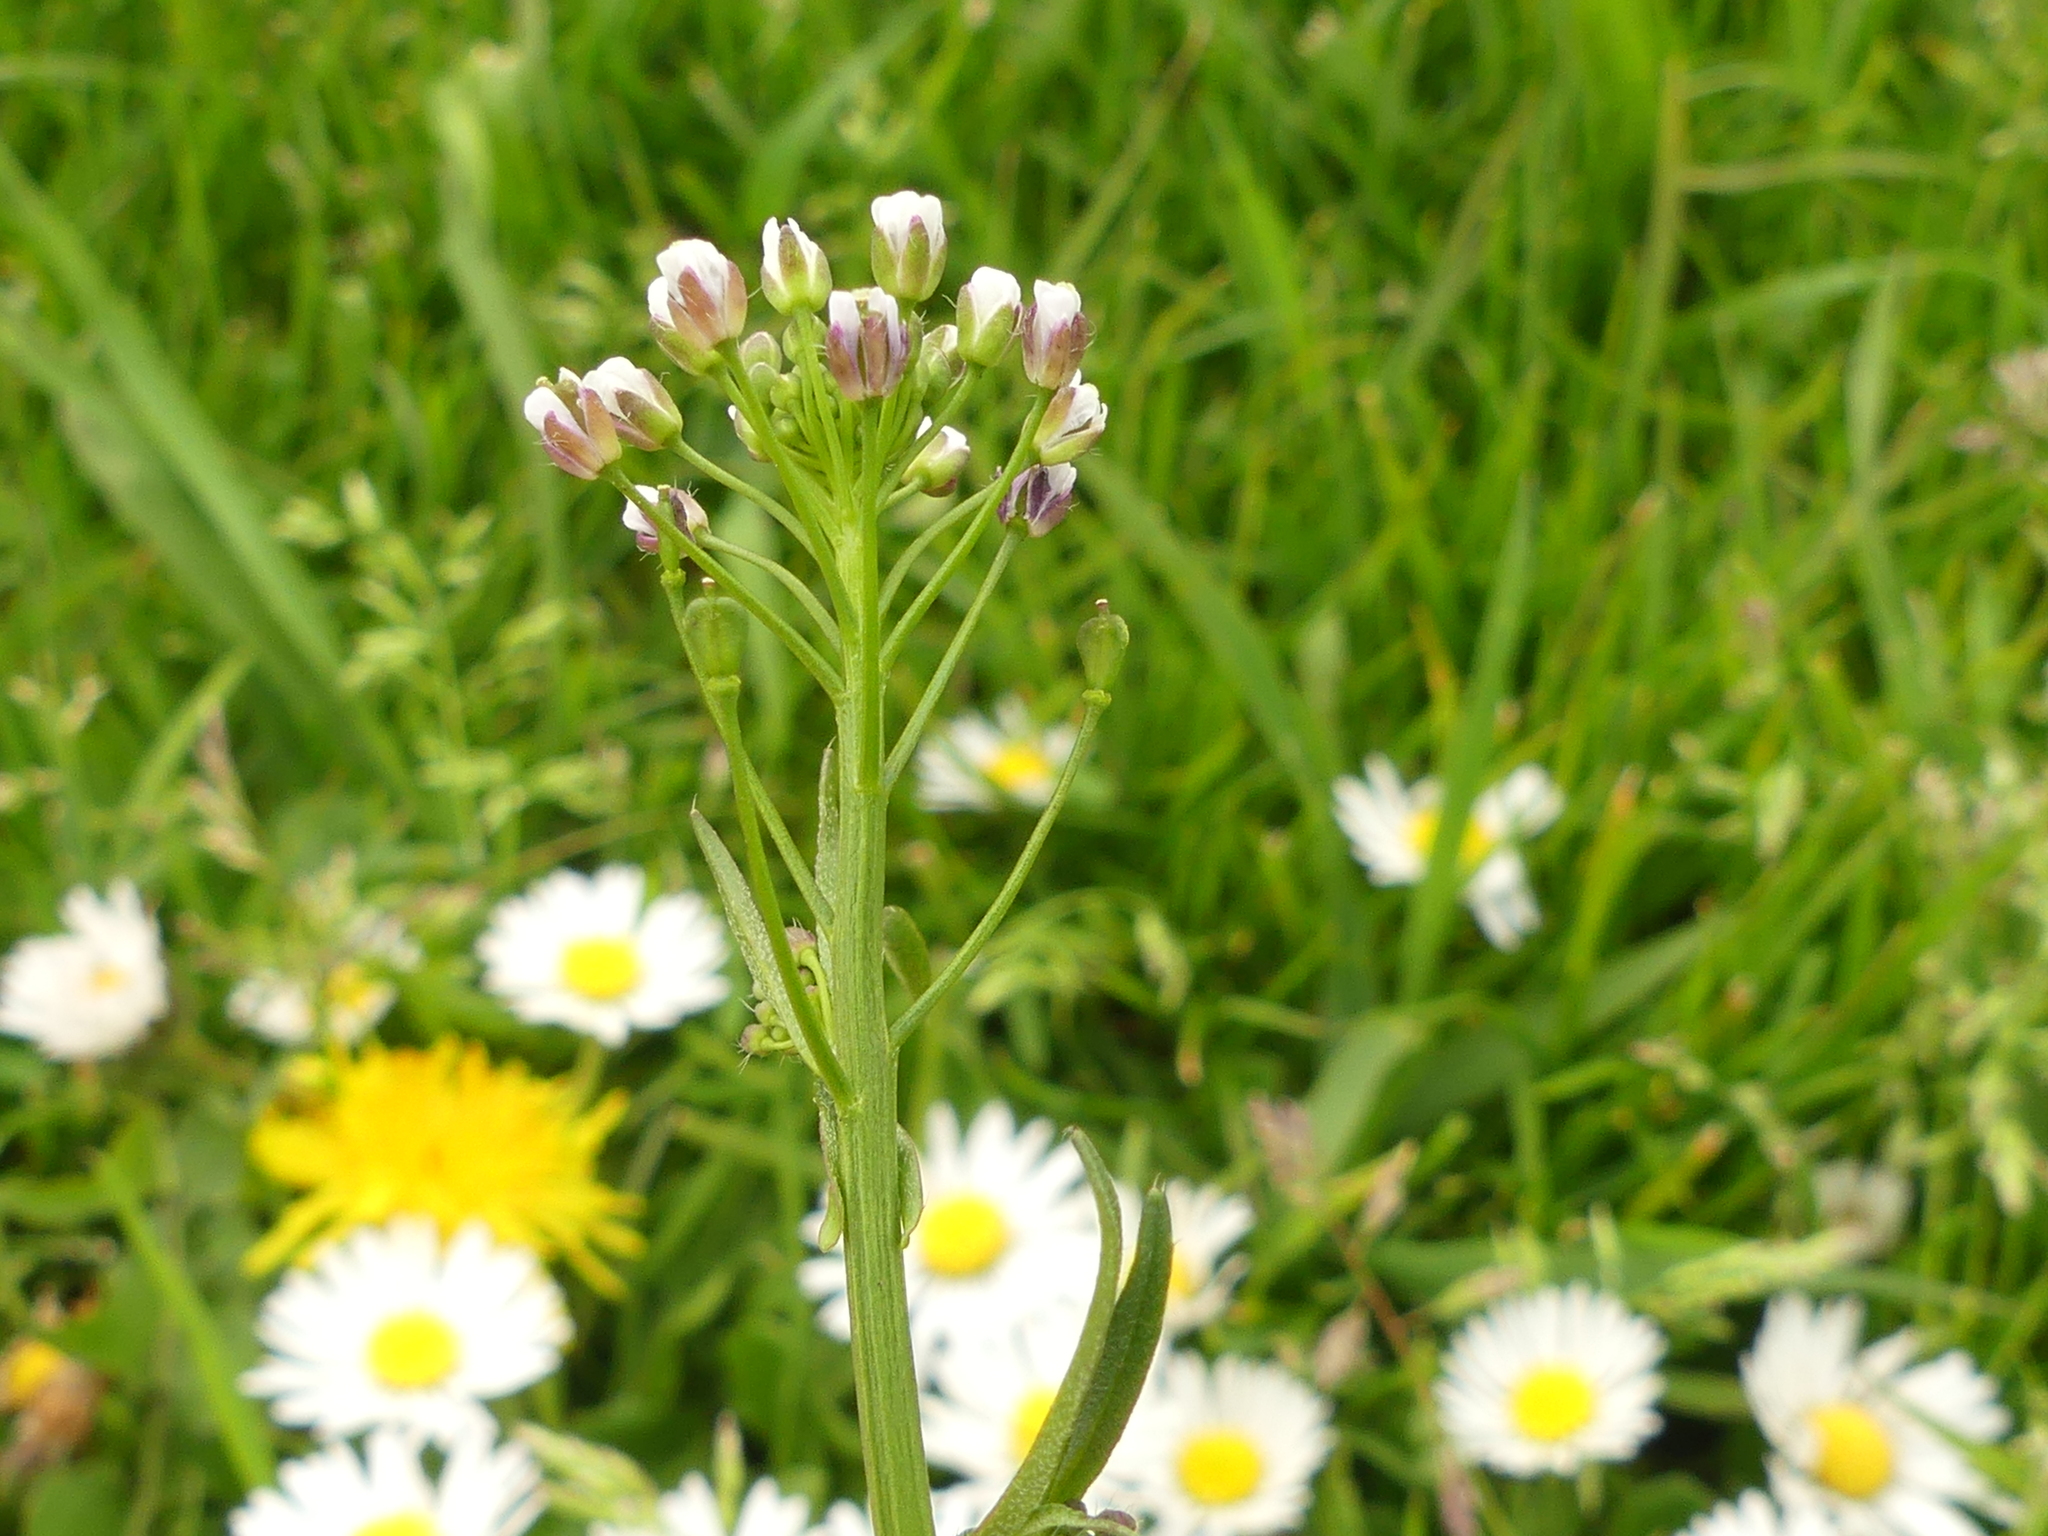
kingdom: Plantae
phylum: Tracheophyta
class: Magnoliopsida
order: Brassicales
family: Brassicaceae
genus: Capsella
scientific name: Capsella bursa-pastoris
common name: Shepherd's purse
